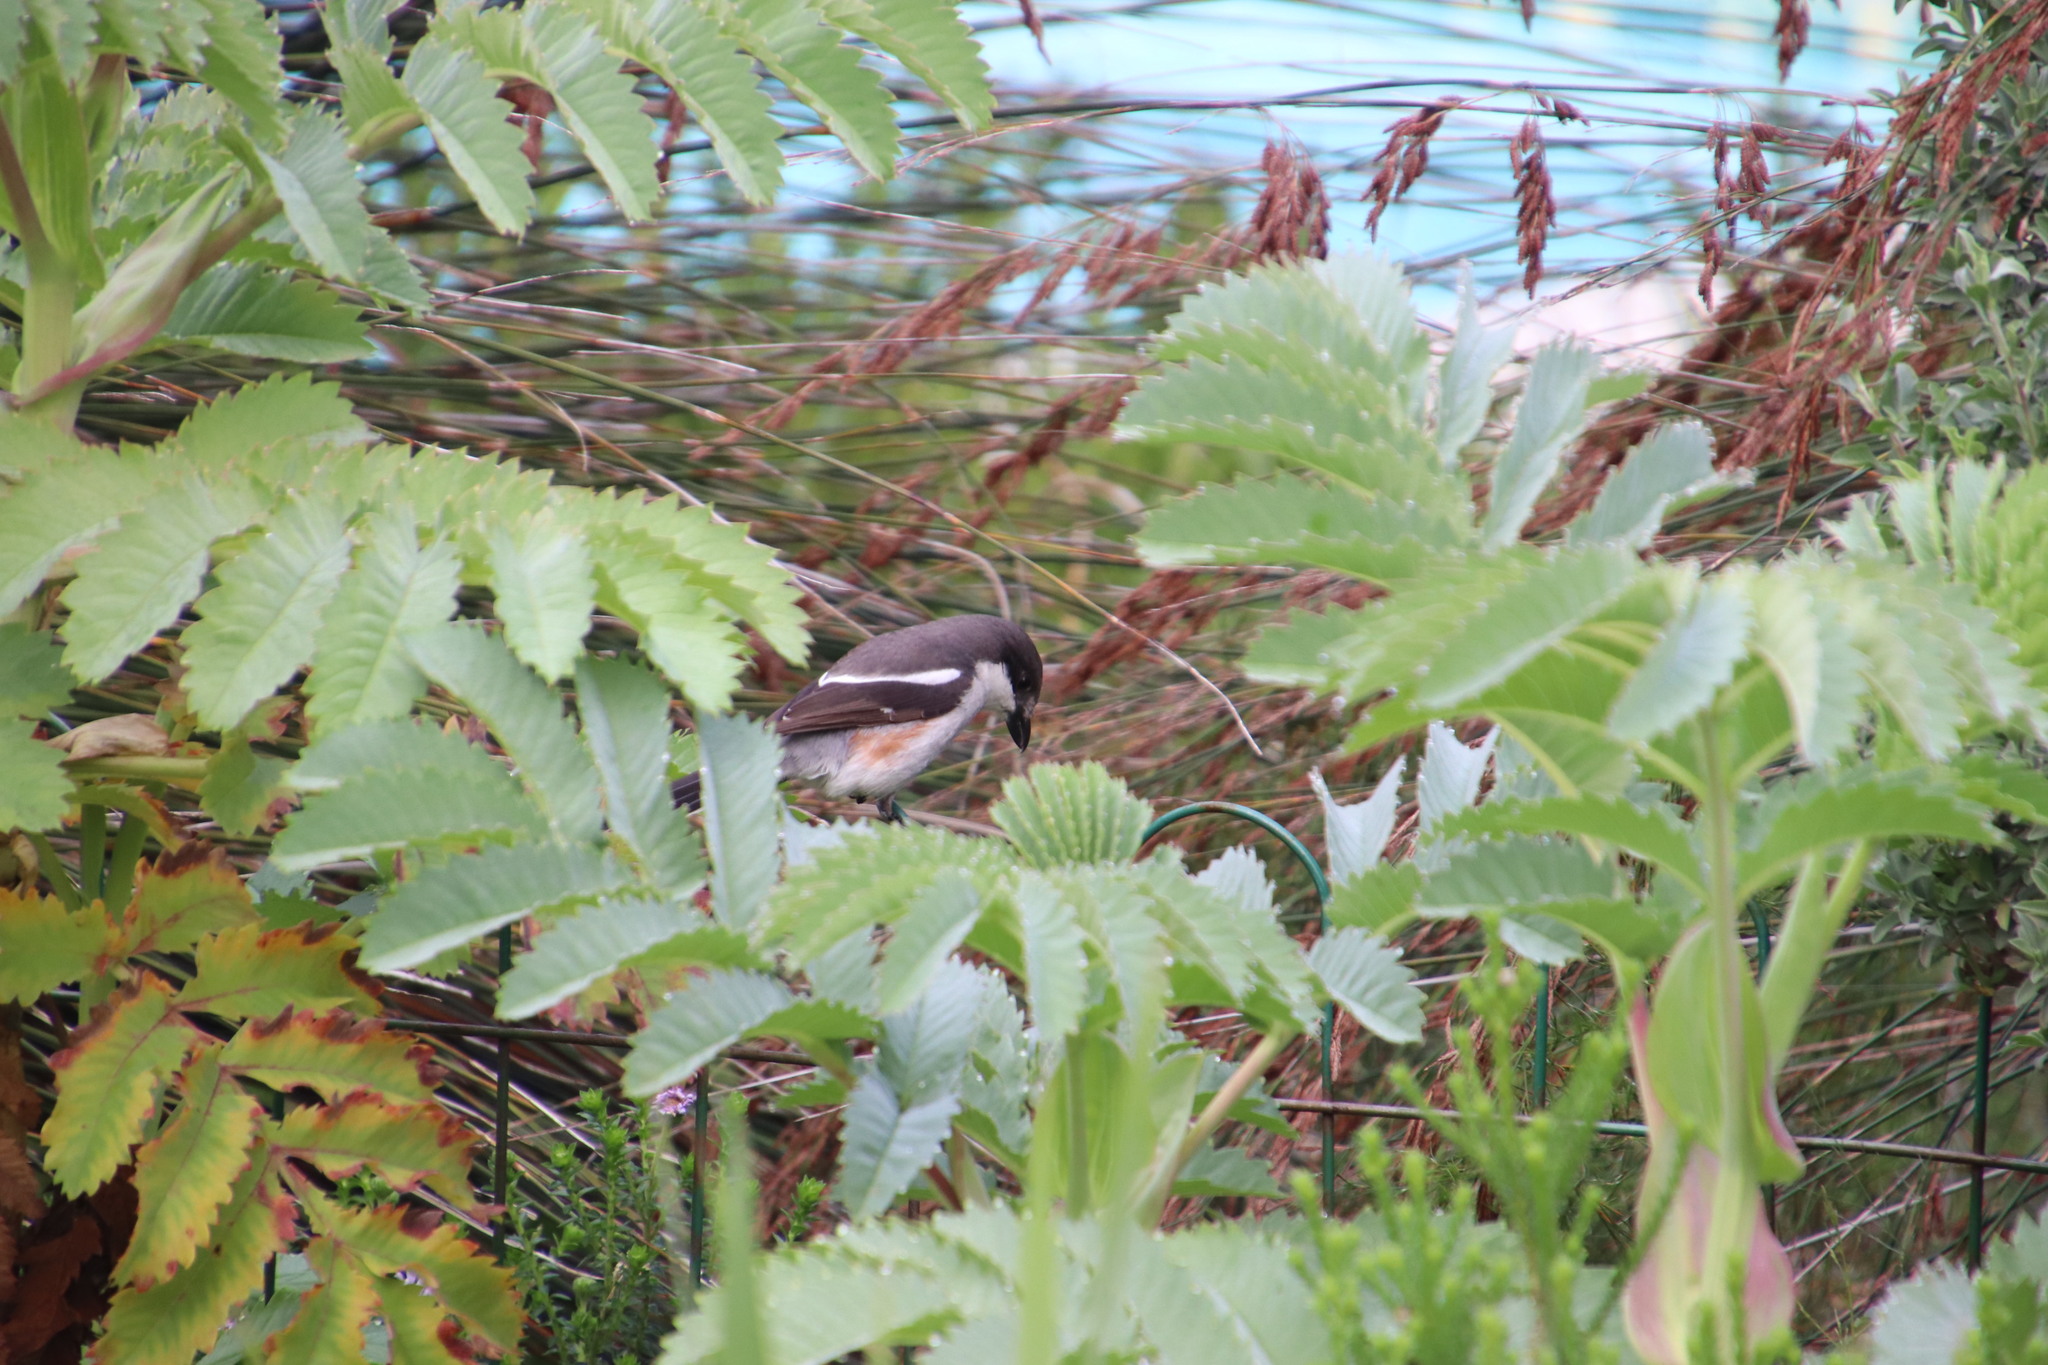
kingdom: Animalia
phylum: Chordata
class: Aves
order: Passeriformes
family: Laniidae
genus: Lanius
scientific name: Lanius collaris
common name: Southern fiscal
